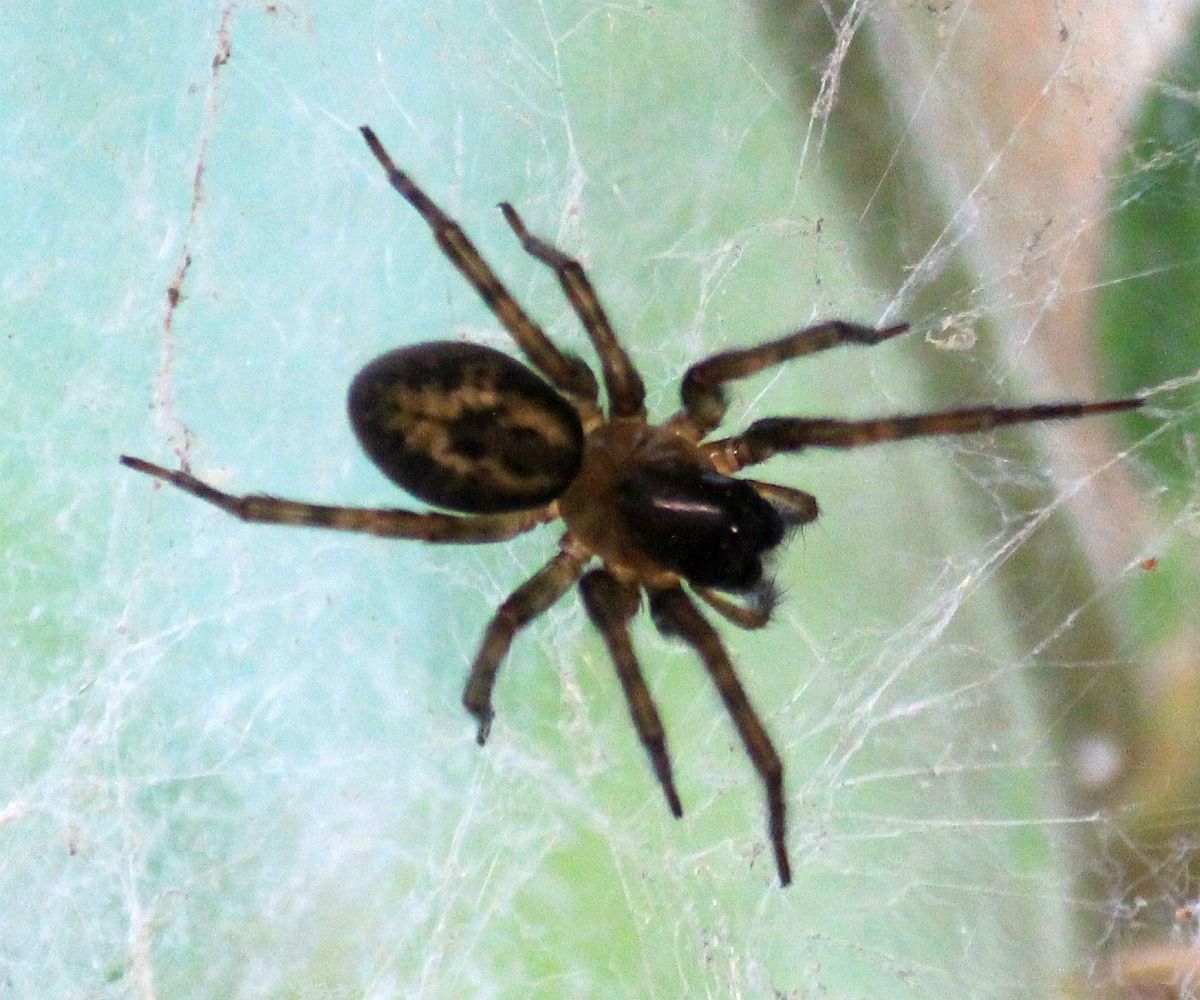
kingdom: Animalia
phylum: Arthropoda
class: Arachnida
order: Araneae
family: Amaurobiidae
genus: Amaurobius
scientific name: Amaurobius similis
